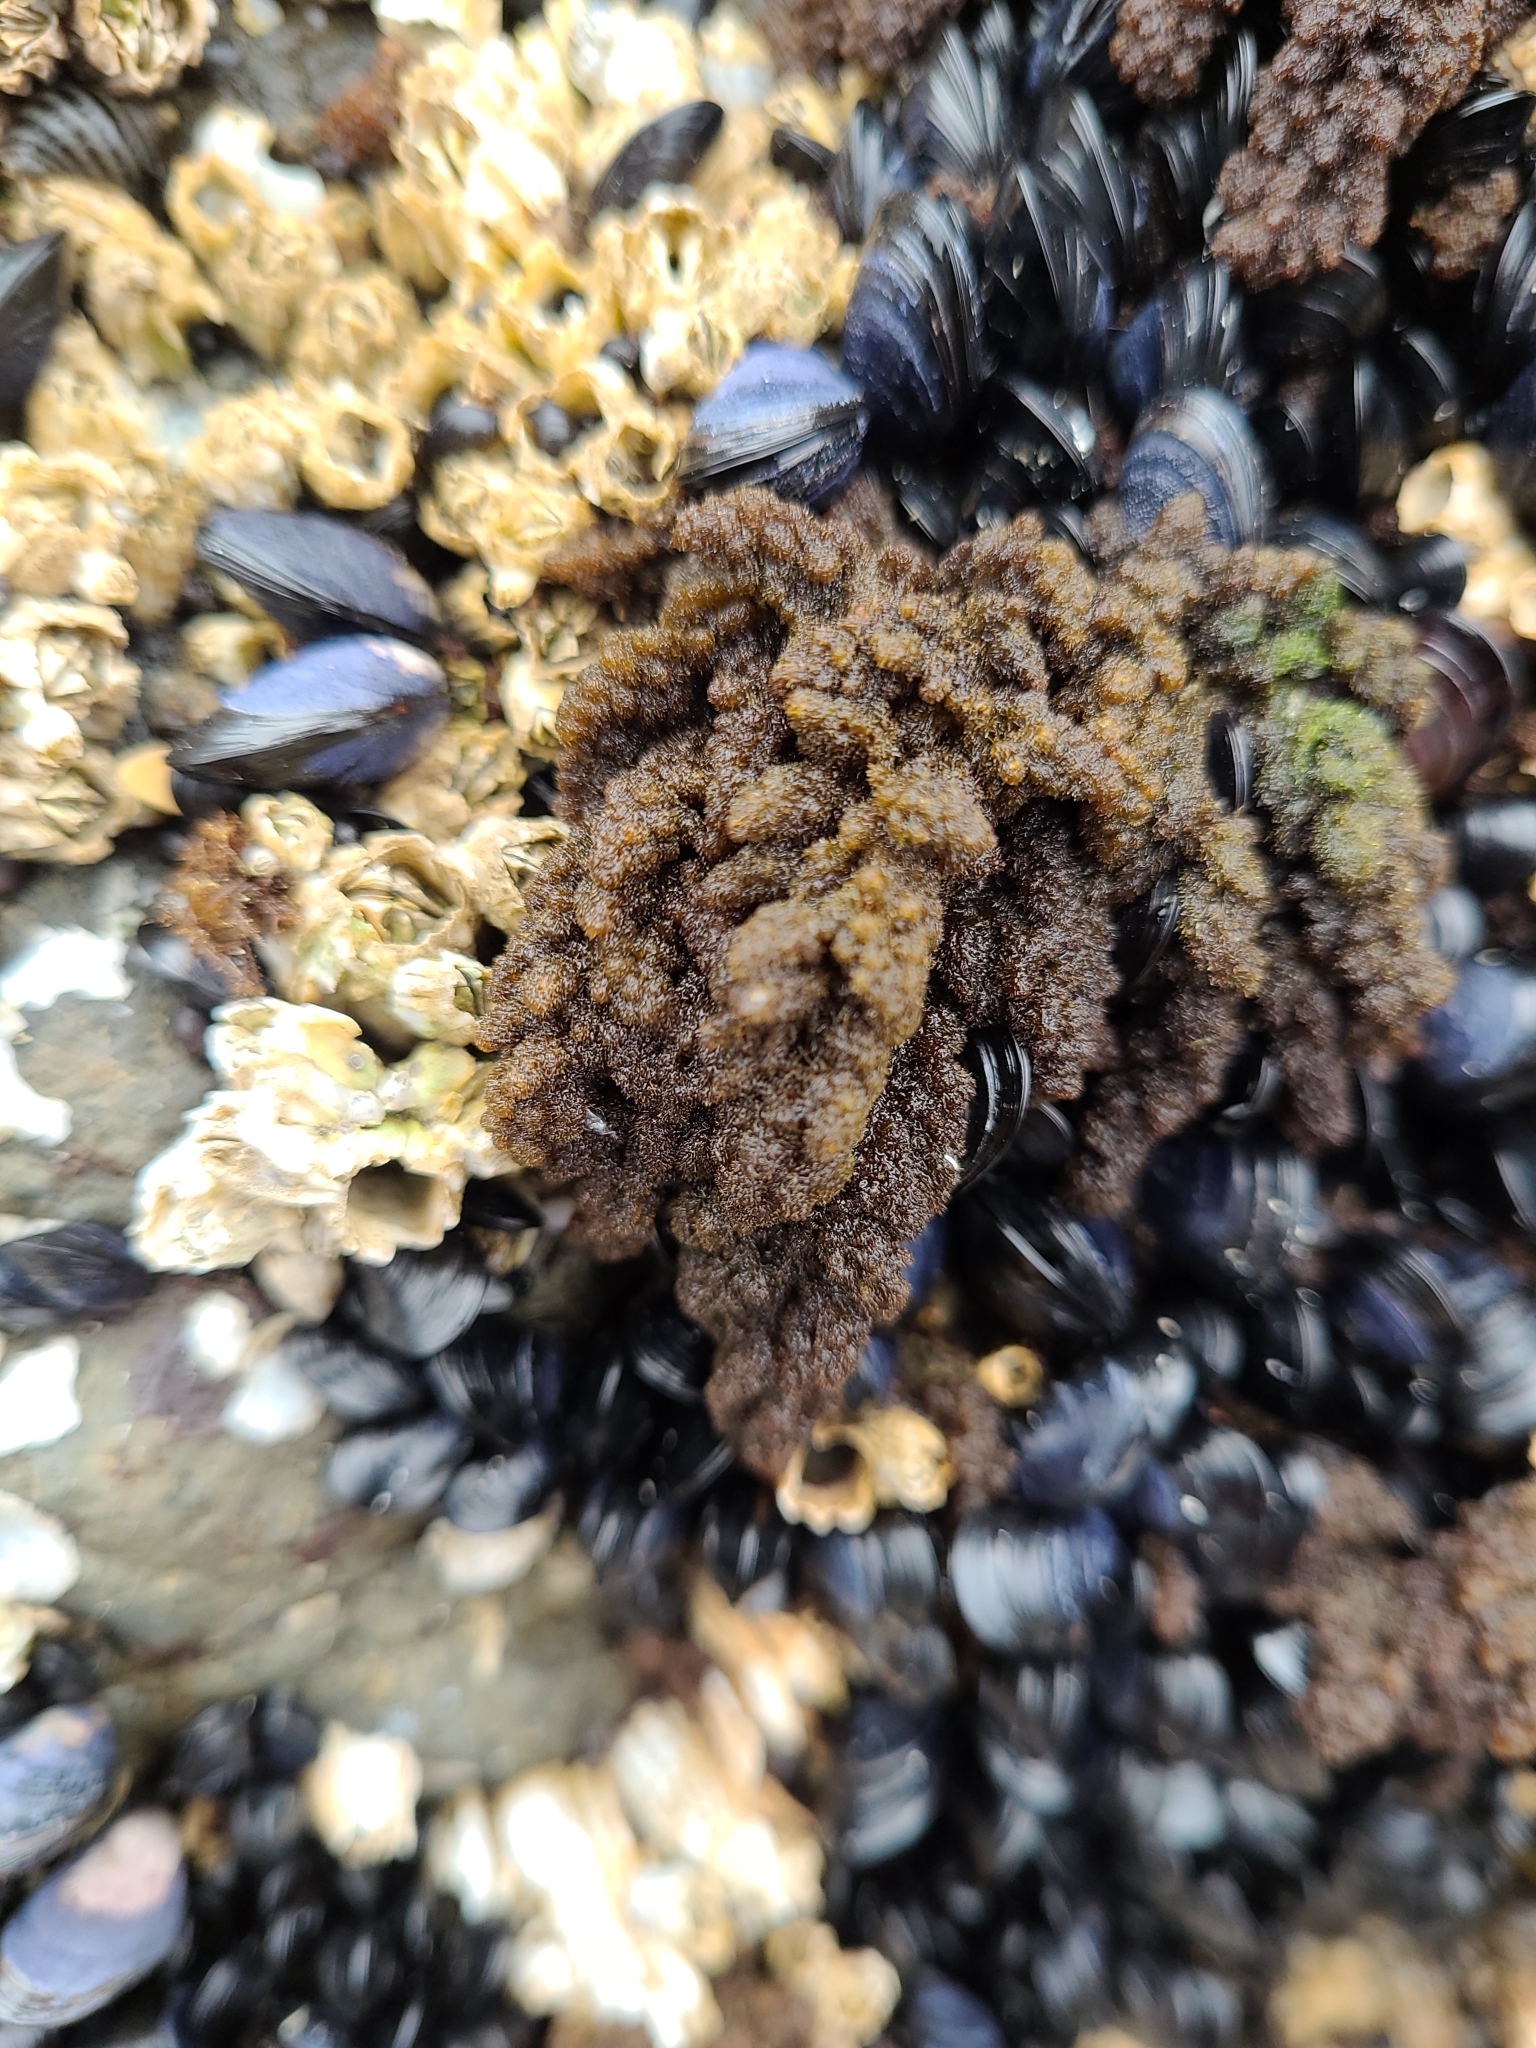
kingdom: Plantae
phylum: Rhodophyta
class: Florideophyceae
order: Ceramiales
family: Callithamniaceae
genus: Callithamnion
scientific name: Callithamnion pikeanum
